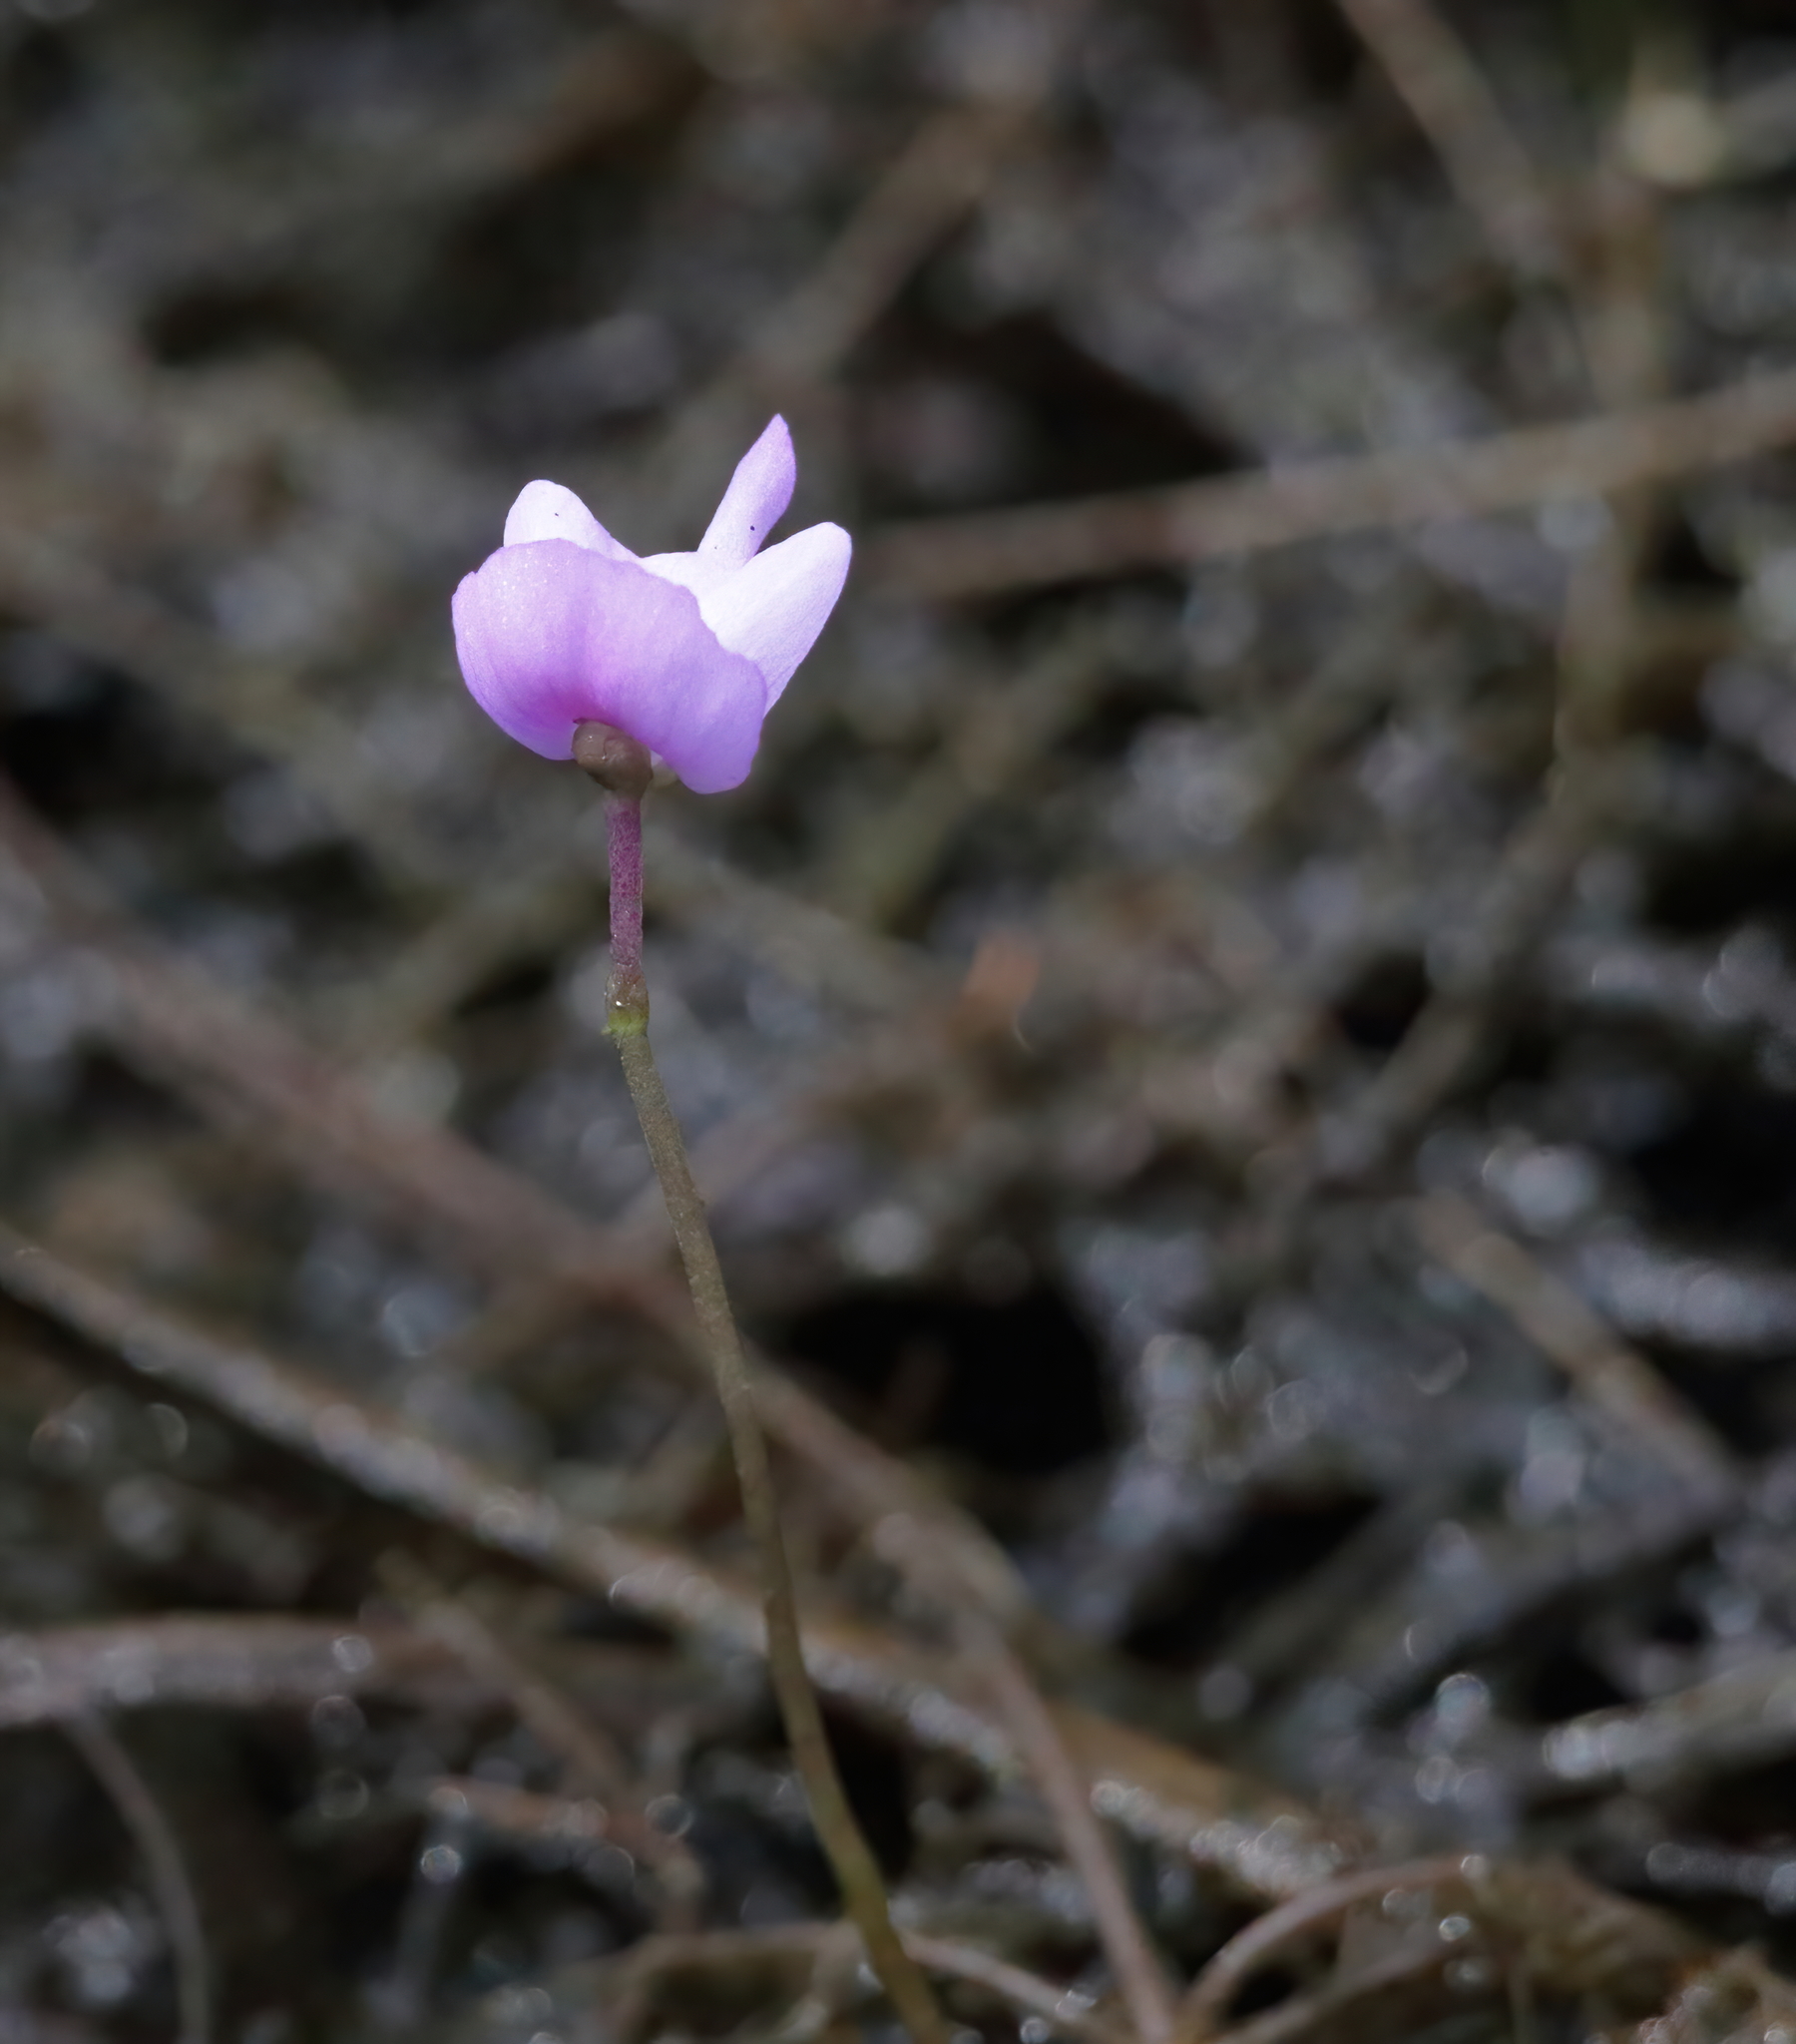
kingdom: Plantae
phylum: Tracheophyta
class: Magnoliopsida
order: Lamiales
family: Lentibulariaceae
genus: Utricularia
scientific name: Utricularia purpurea
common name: Eastern purple bladderwort
